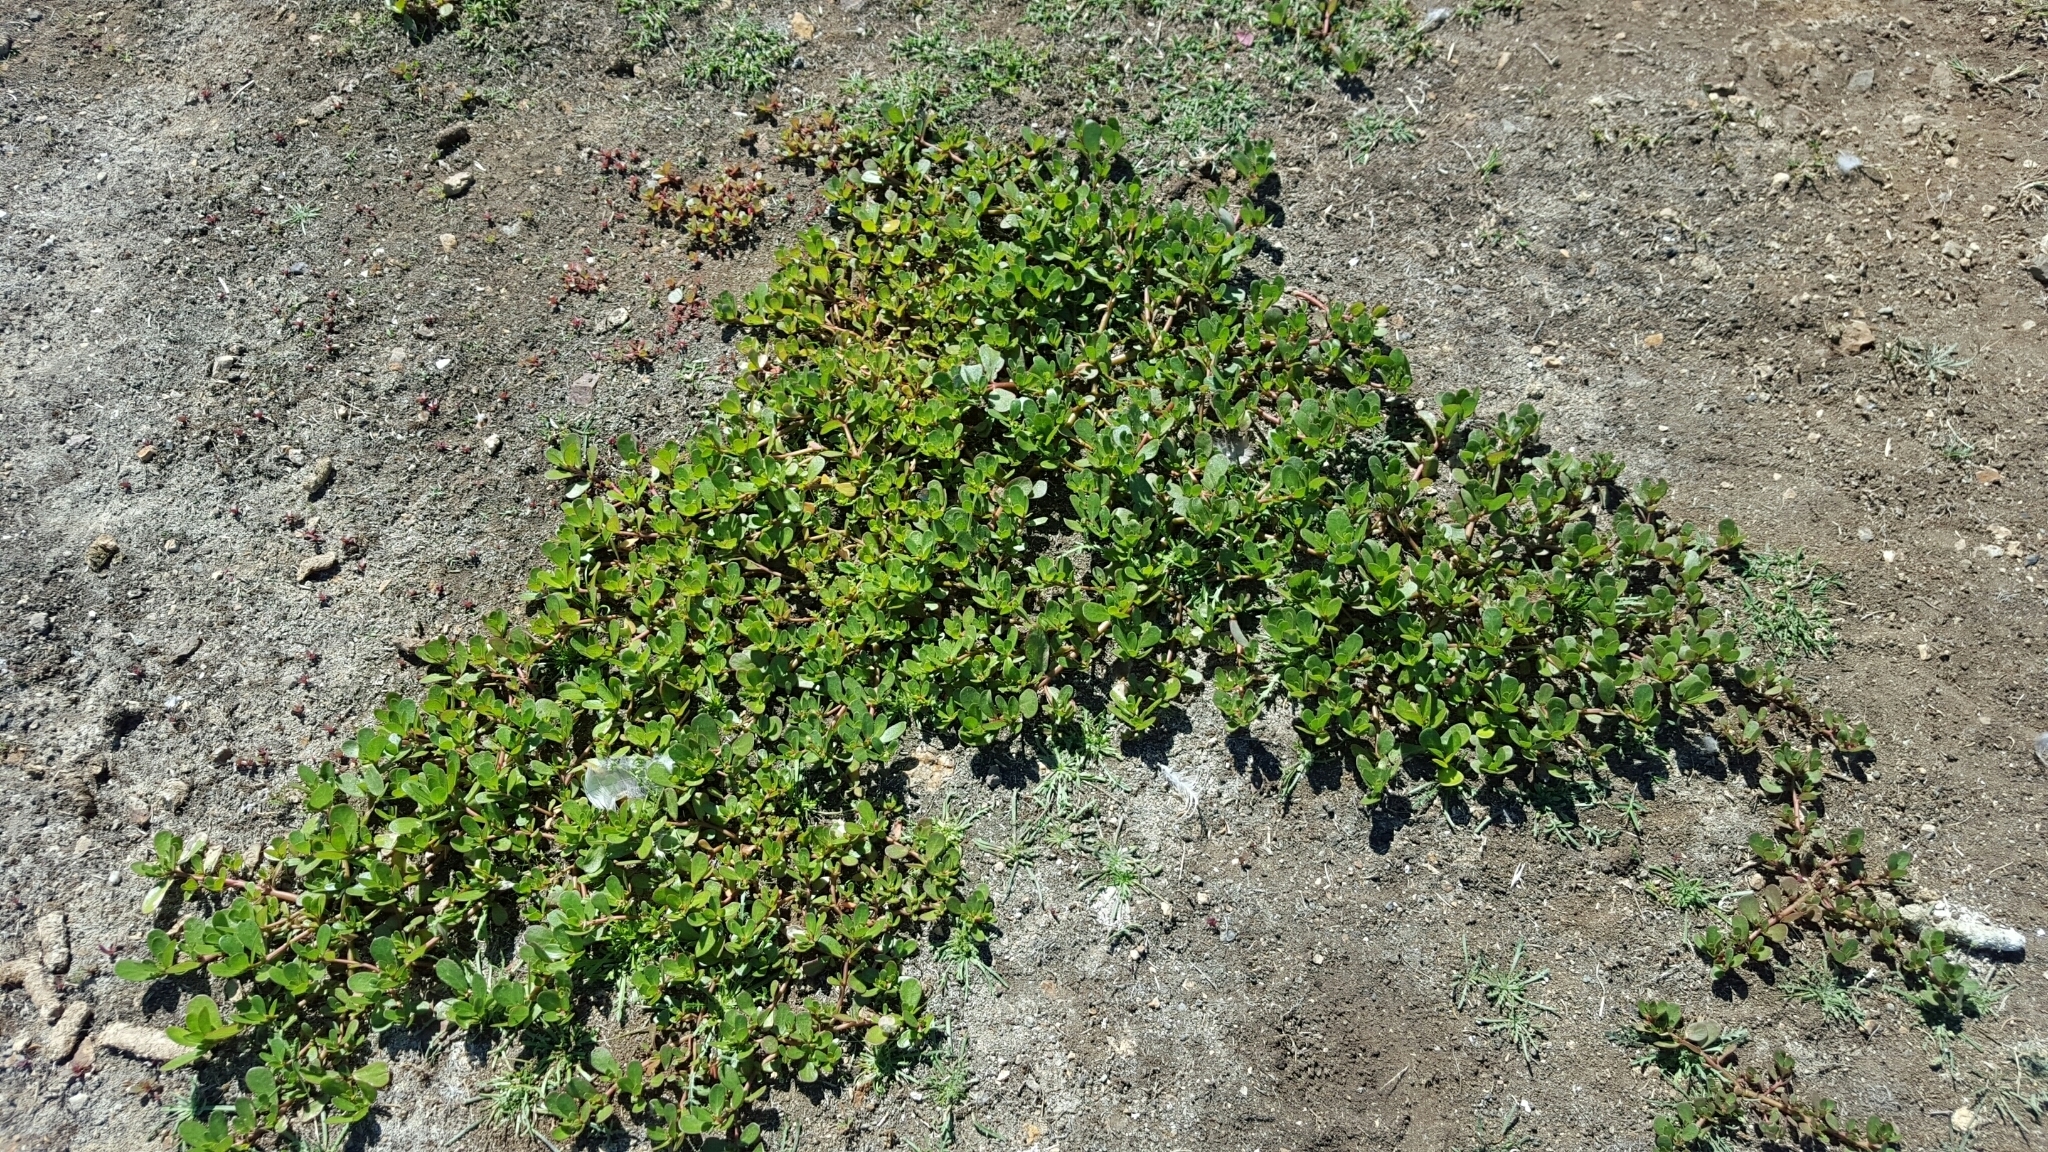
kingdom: Plantae
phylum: Tracheophyta
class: Magnoliopsida
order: Caryophyllales
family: Portulacaceae
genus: Portulaca
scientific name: Portulaca oleracea
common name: Common purslane
